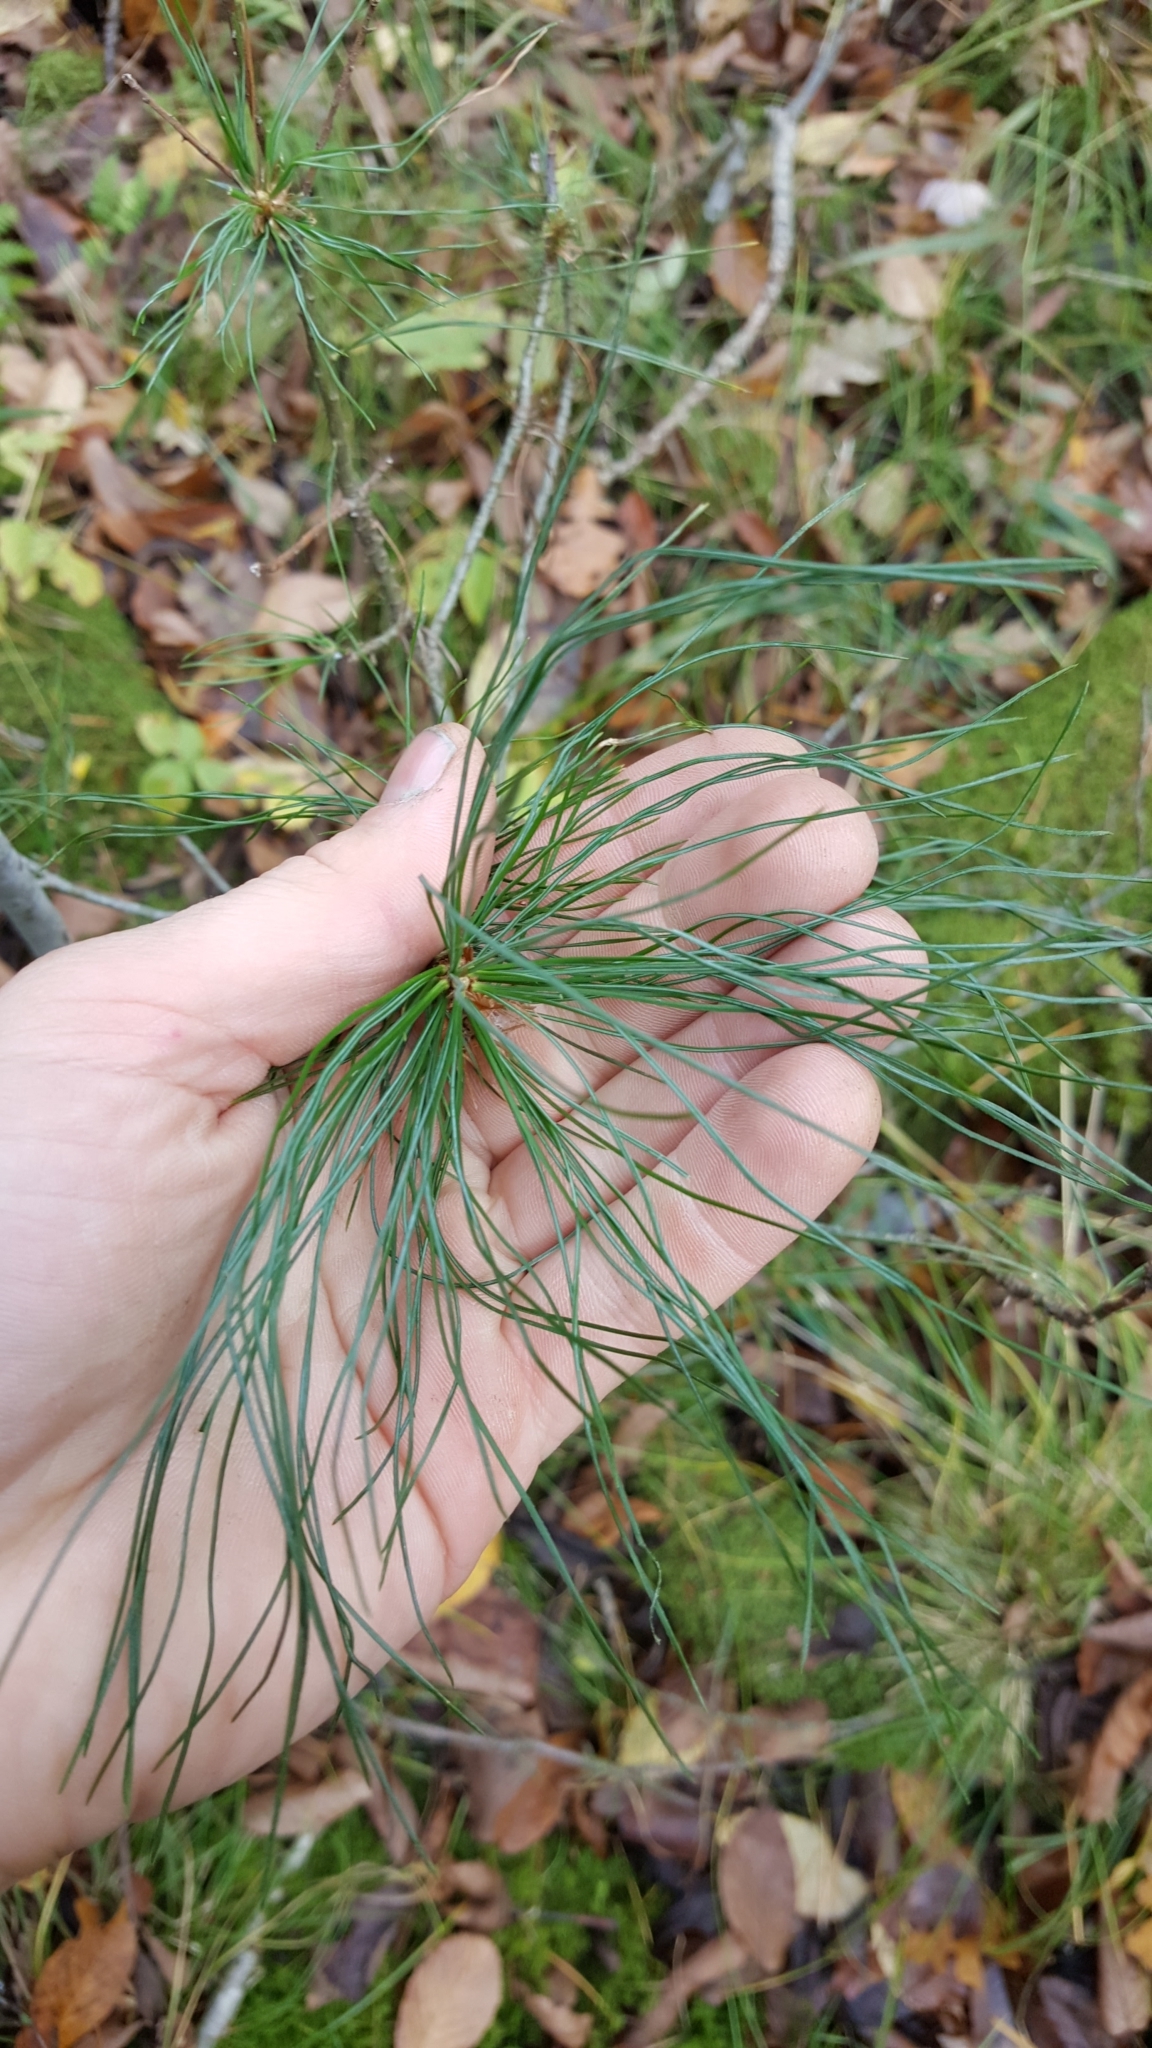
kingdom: Plantae
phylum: Tracheophyta
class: Pinopsida
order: Pinales
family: Pinaceae
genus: Pinus
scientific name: Pinus strobus
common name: Weymouth pine
